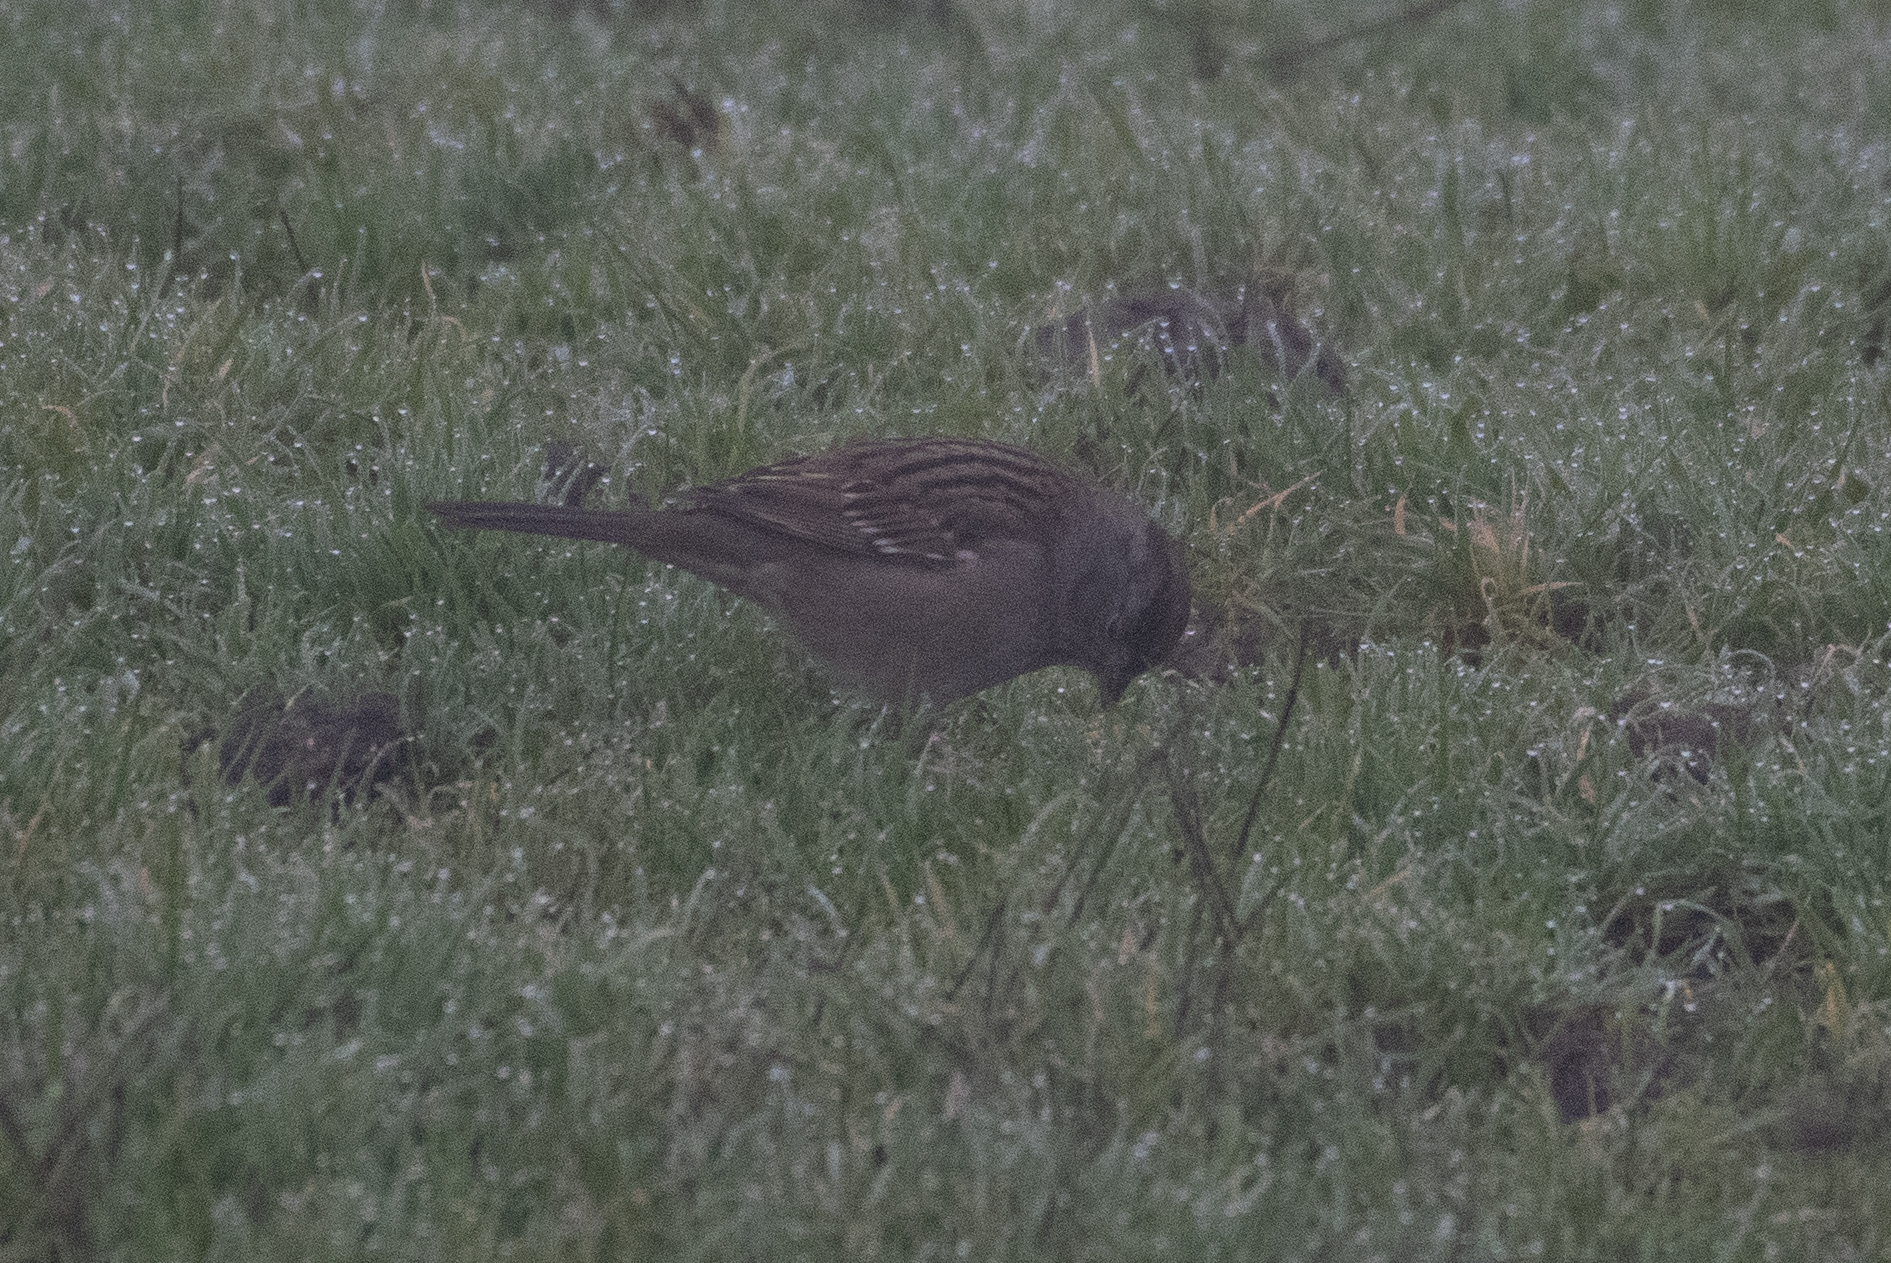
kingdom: Animalia
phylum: Chordata
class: Aves
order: Passeriformes
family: Passerellidae
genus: Zonotrichia
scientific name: Zonotrichia atricapilla
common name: Golden-crowned sparrow
